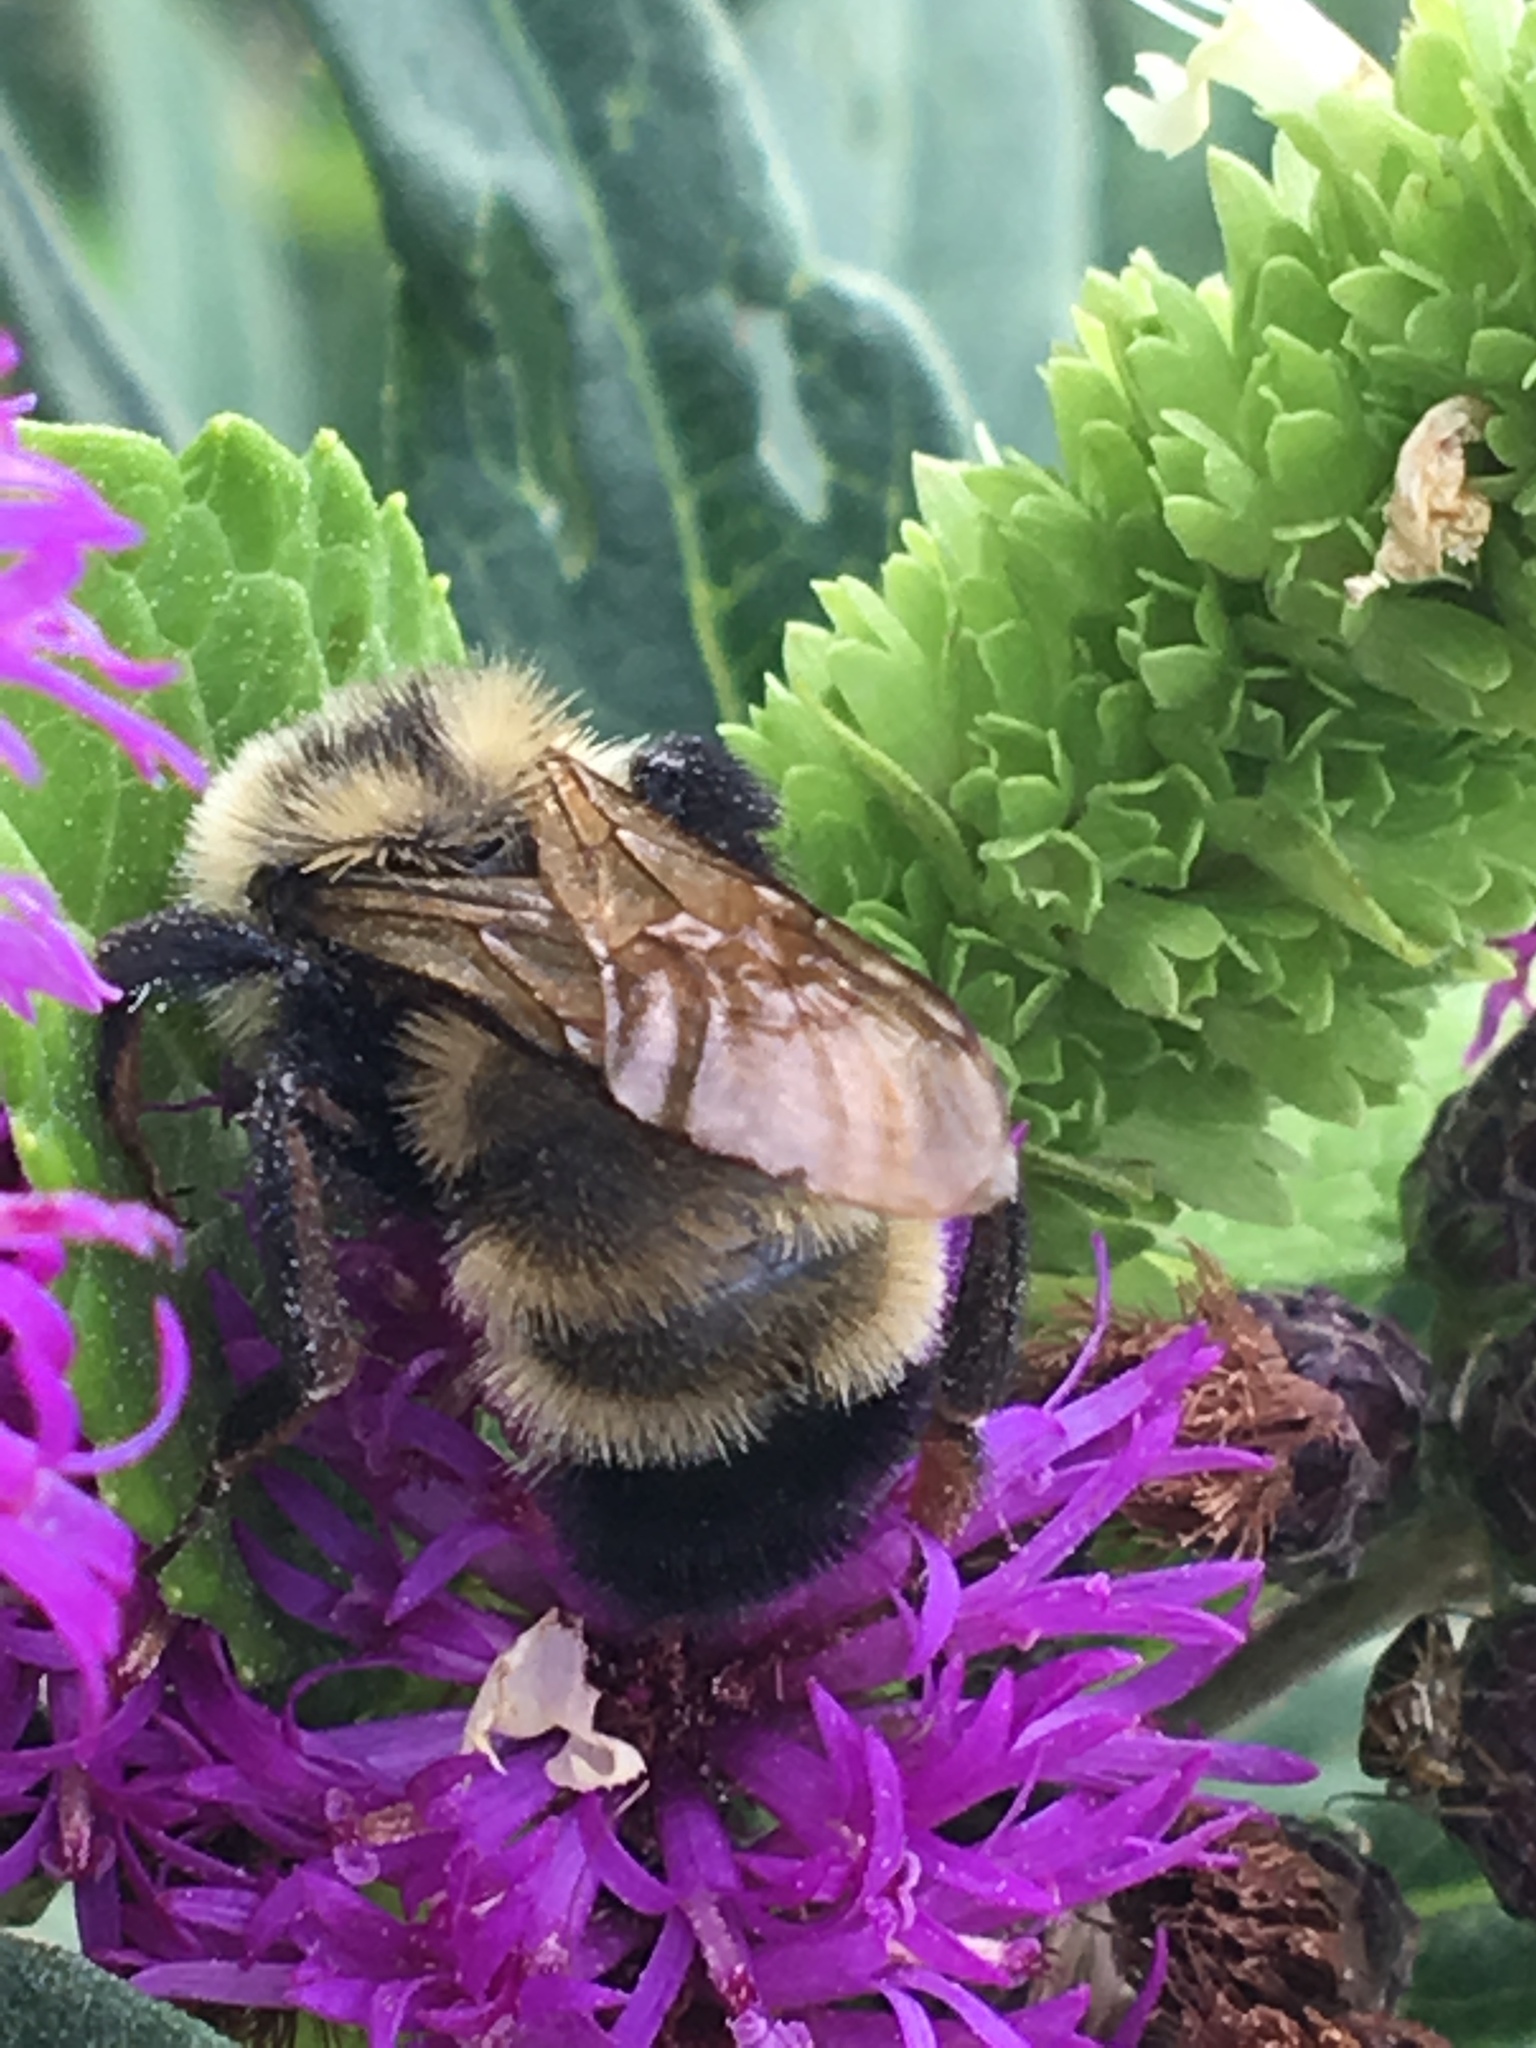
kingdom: Animalia
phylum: Arthropoda
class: Insecta
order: Hymenoptera
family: Apidae
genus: Bombus
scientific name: Bombus citrinus
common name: Lemon cuckoo bumble bee
